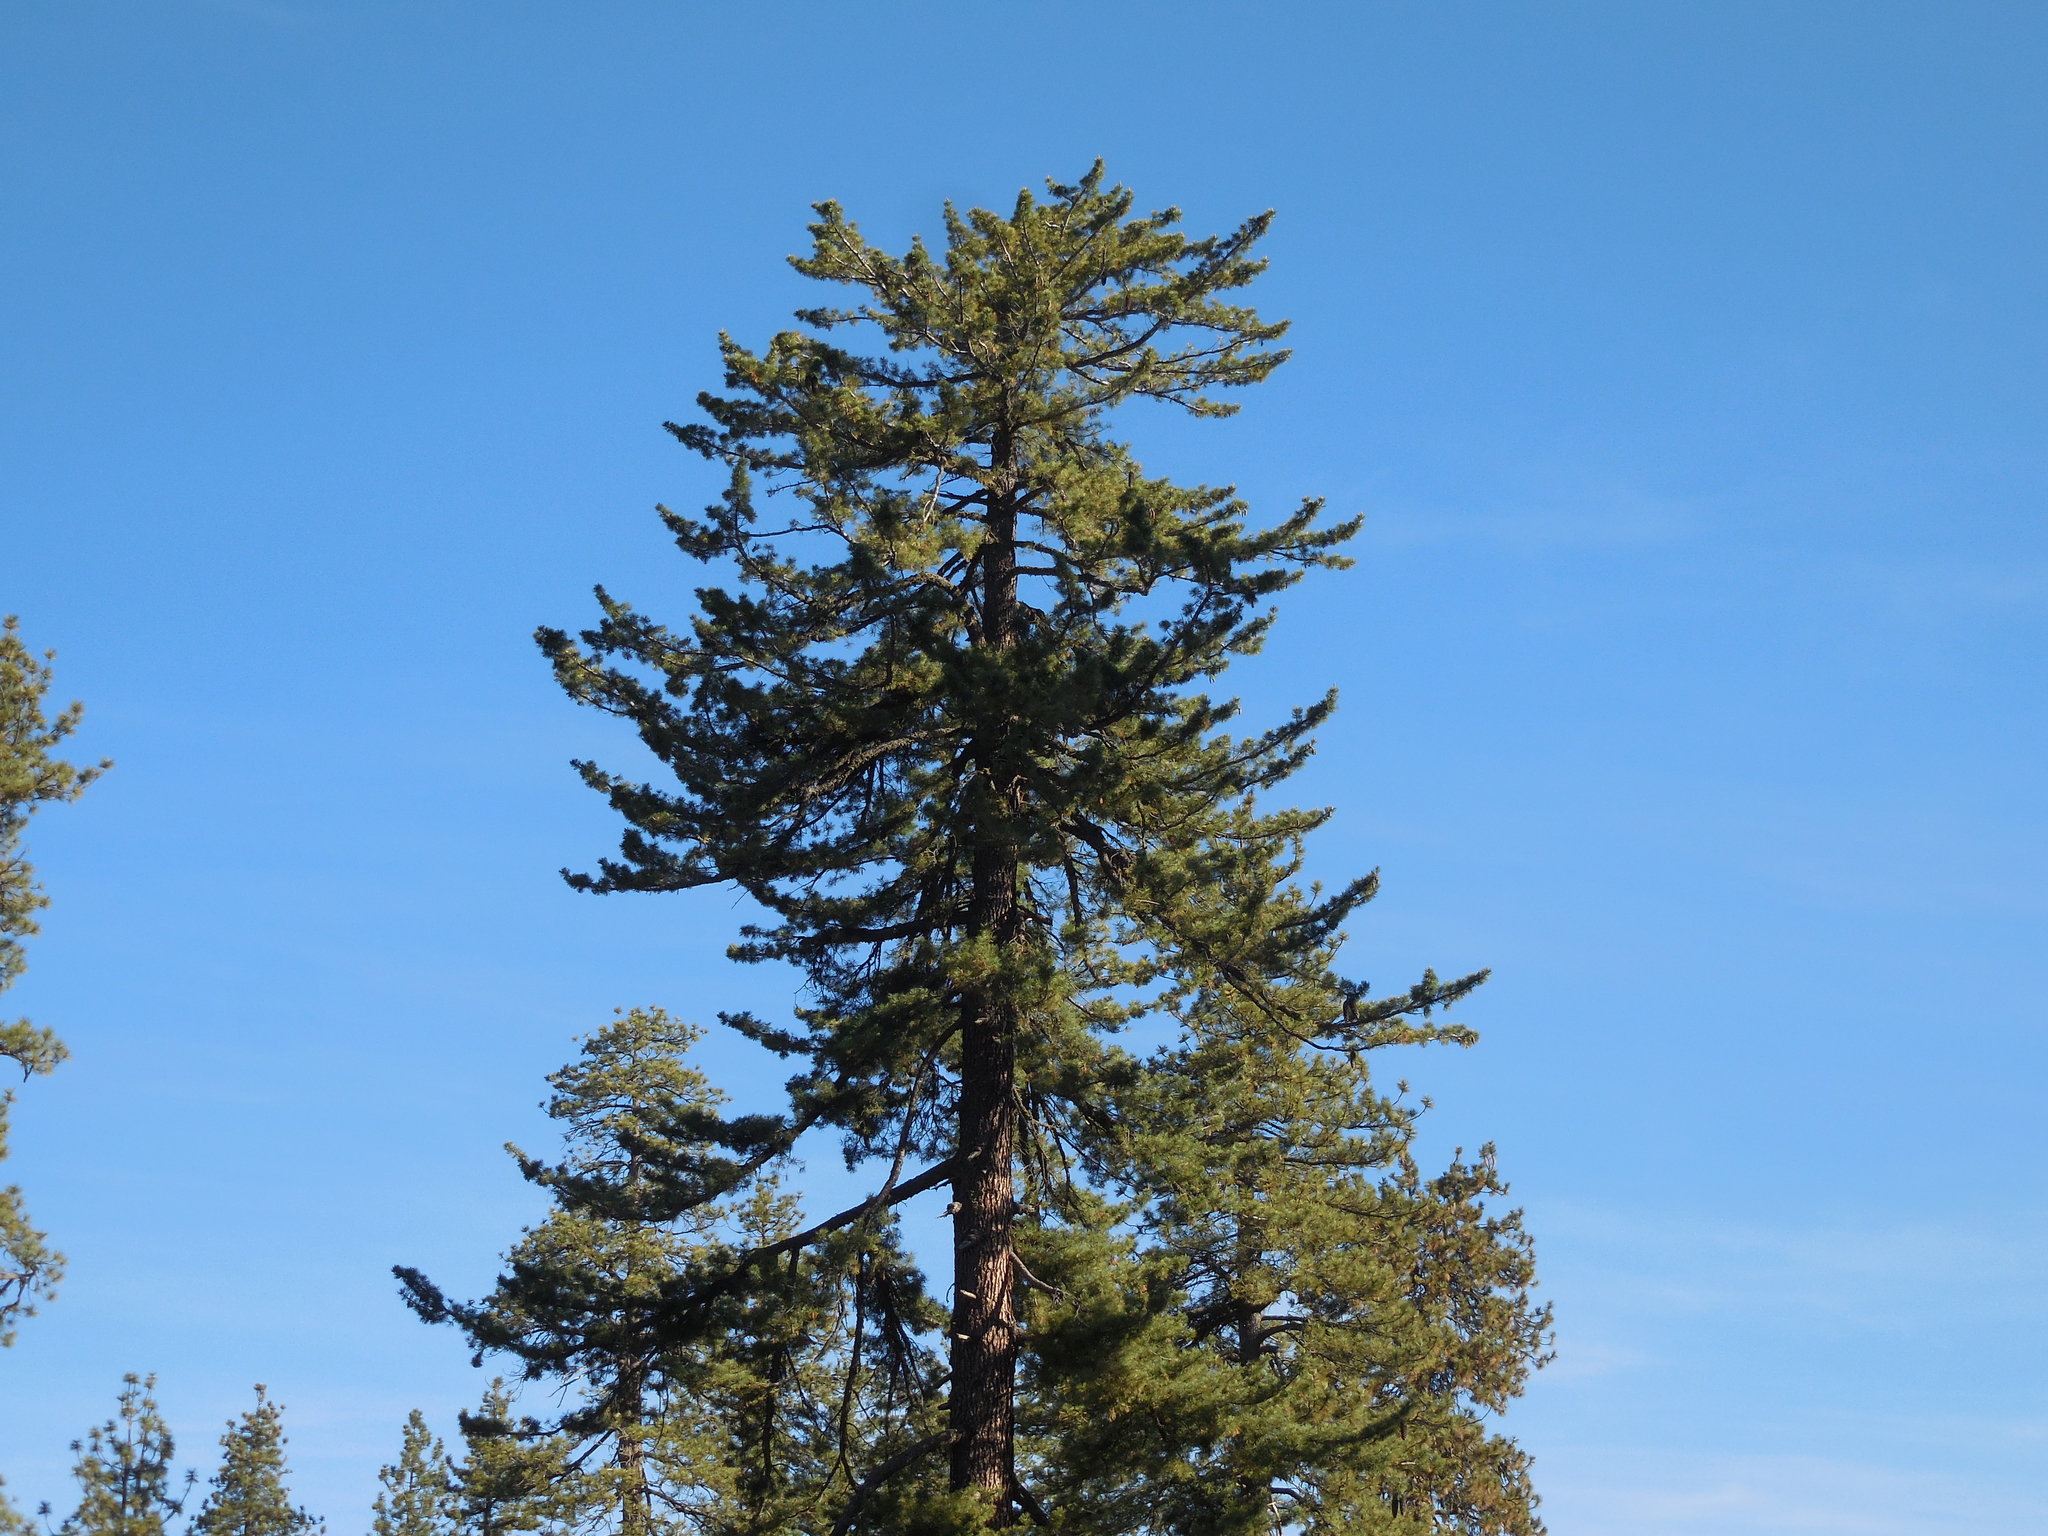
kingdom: Plantae
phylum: Tracheophyta
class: Pinopsida
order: Pinales
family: Pinaceae
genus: Pinus
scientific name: Pinus lambertiana
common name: Sugar pine
